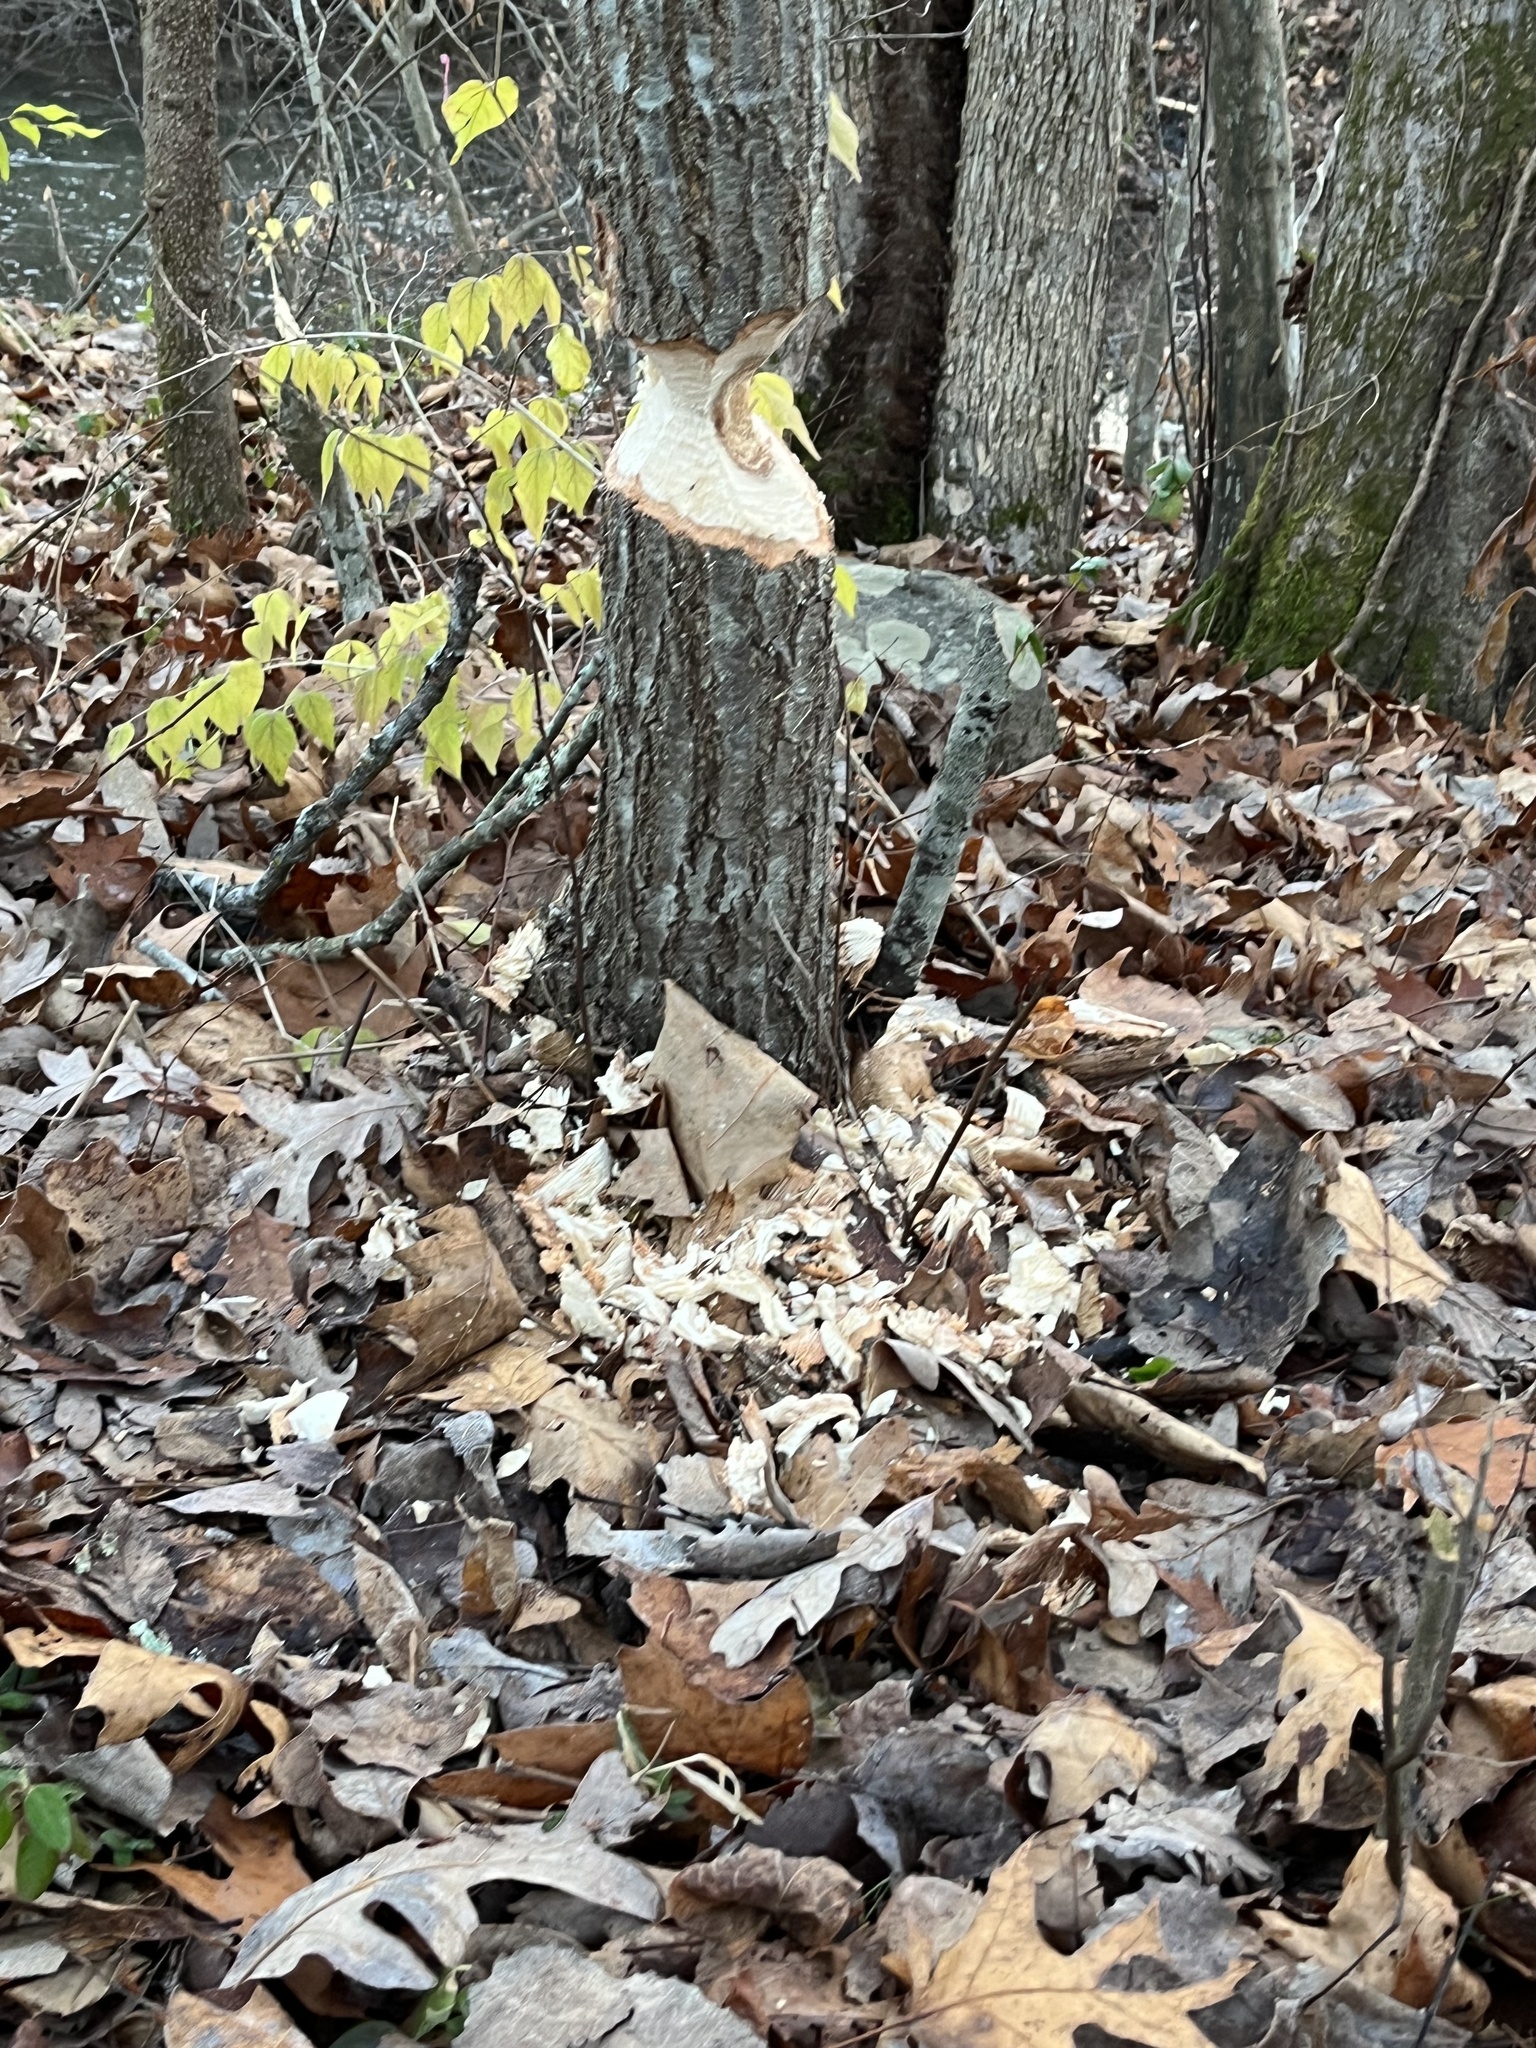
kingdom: Animalia
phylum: Chordata
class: Mammalia
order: Rodentia
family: Castoridae
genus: Castor
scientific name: Castor canadensis
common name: American beaver
